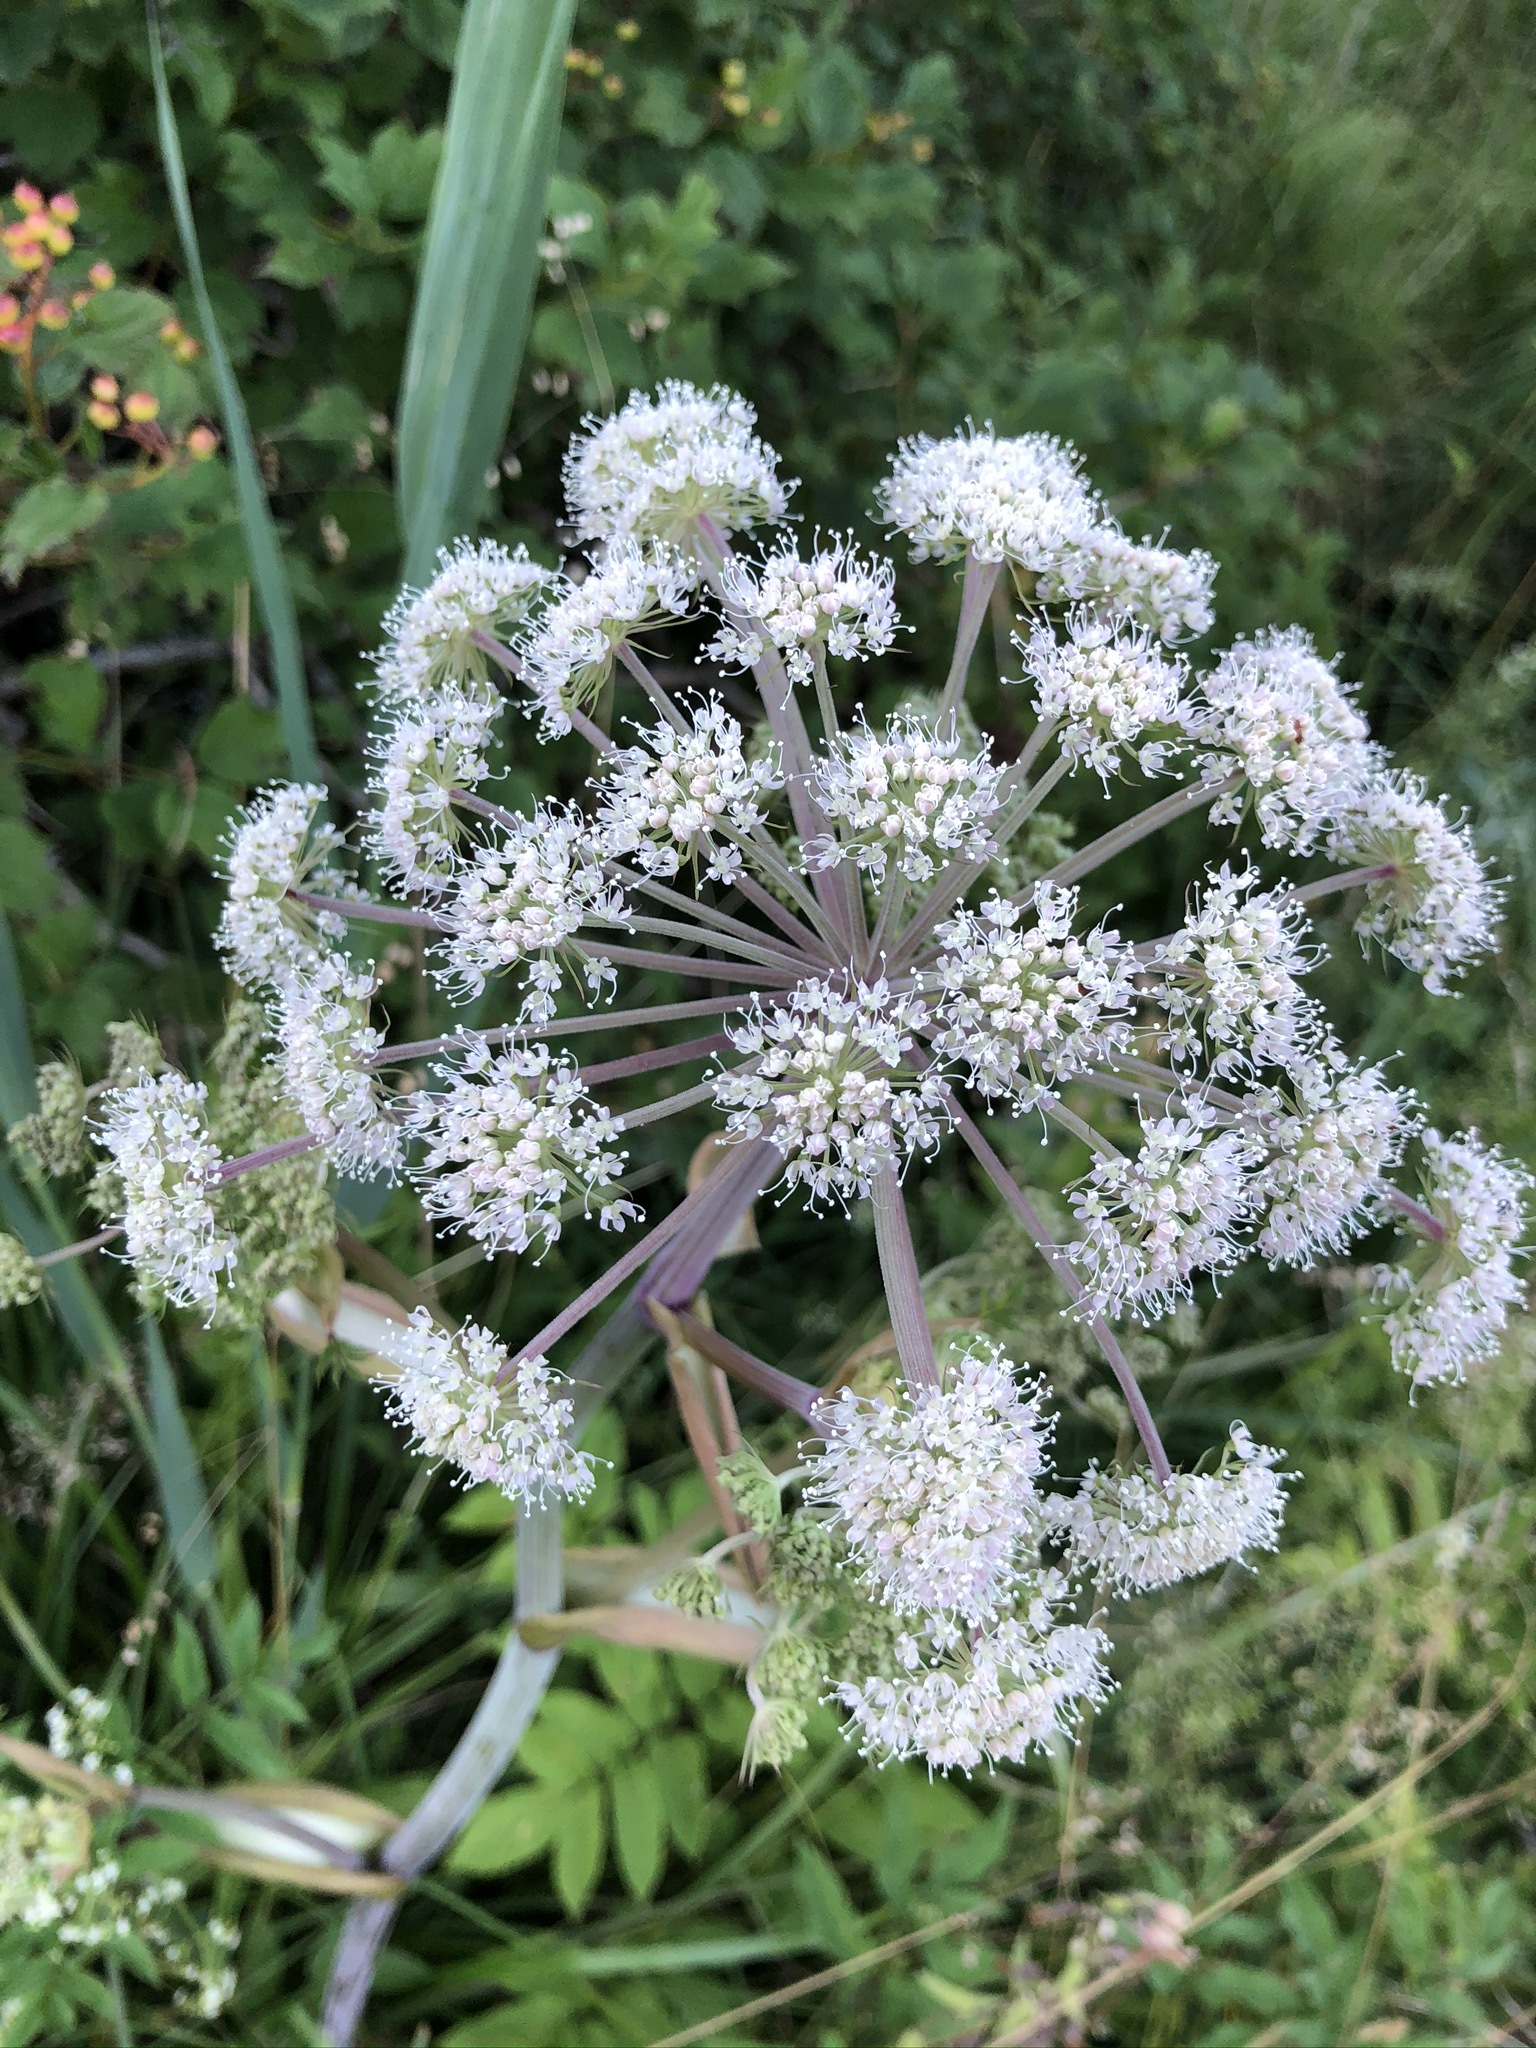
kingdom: Plantae
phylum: Tracheophyta
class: Magnoliopsida
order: Apiales
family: Apiaceae
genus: Angelica
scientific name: Angelica sylvestris
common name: Wild angelica
